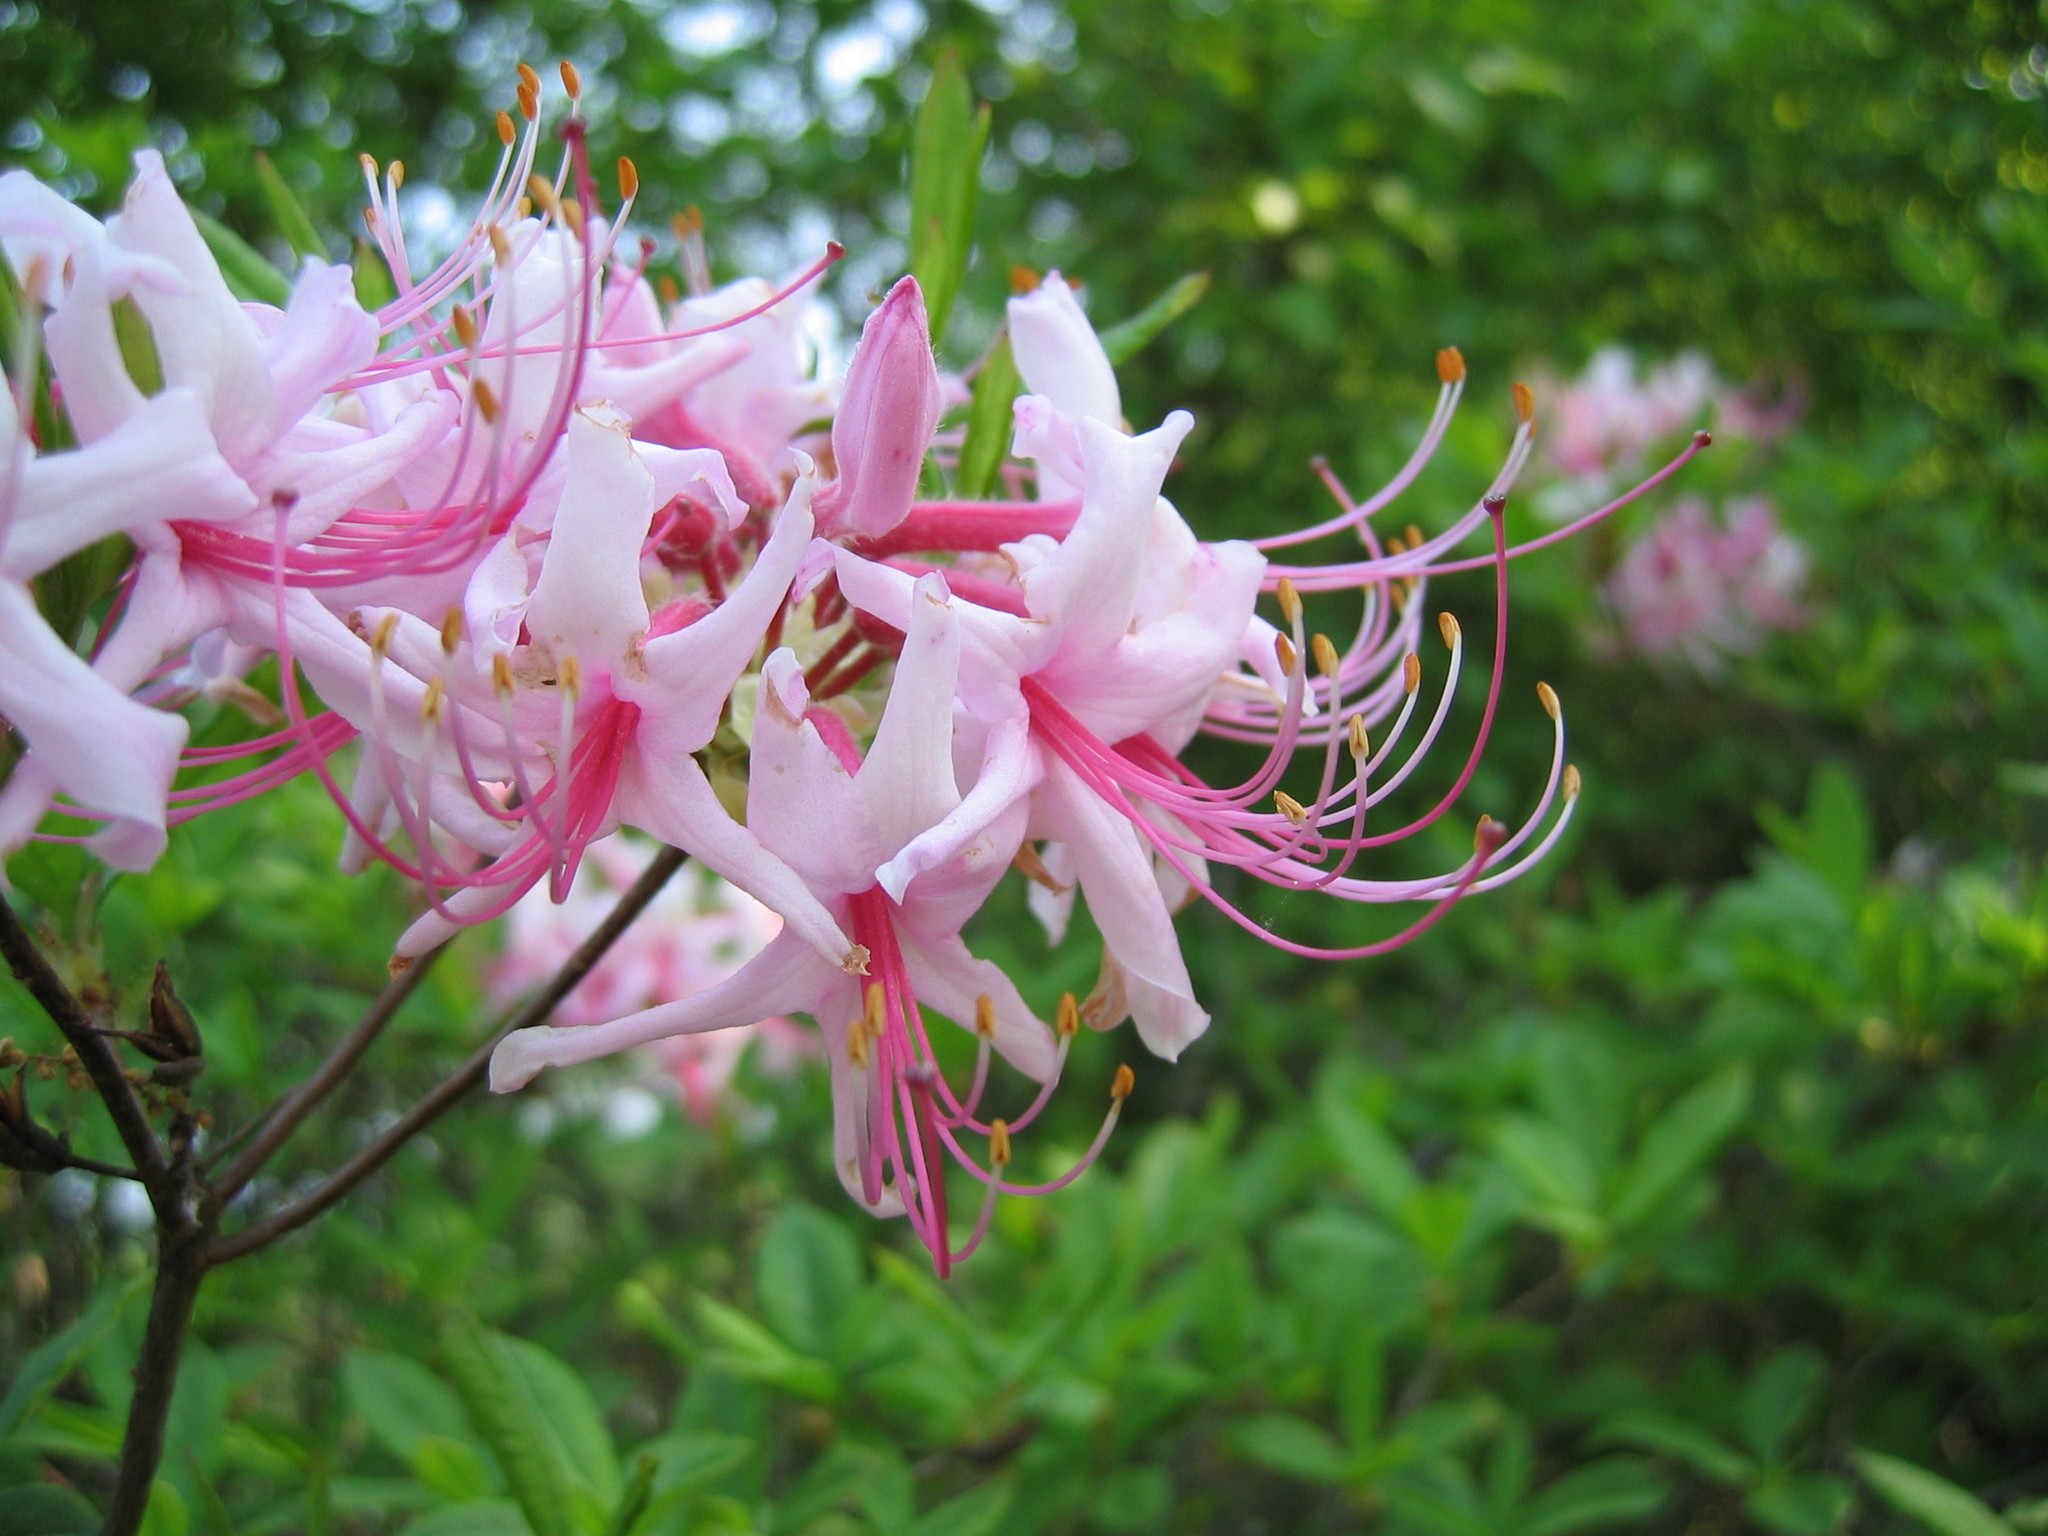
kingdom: Plantae
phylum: Tracheophyta
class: Magnoliopsida
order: Ericales
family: Ericaceae
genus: Rhododendron
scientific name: Rhododendron periclymenoides
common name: Election-pink
